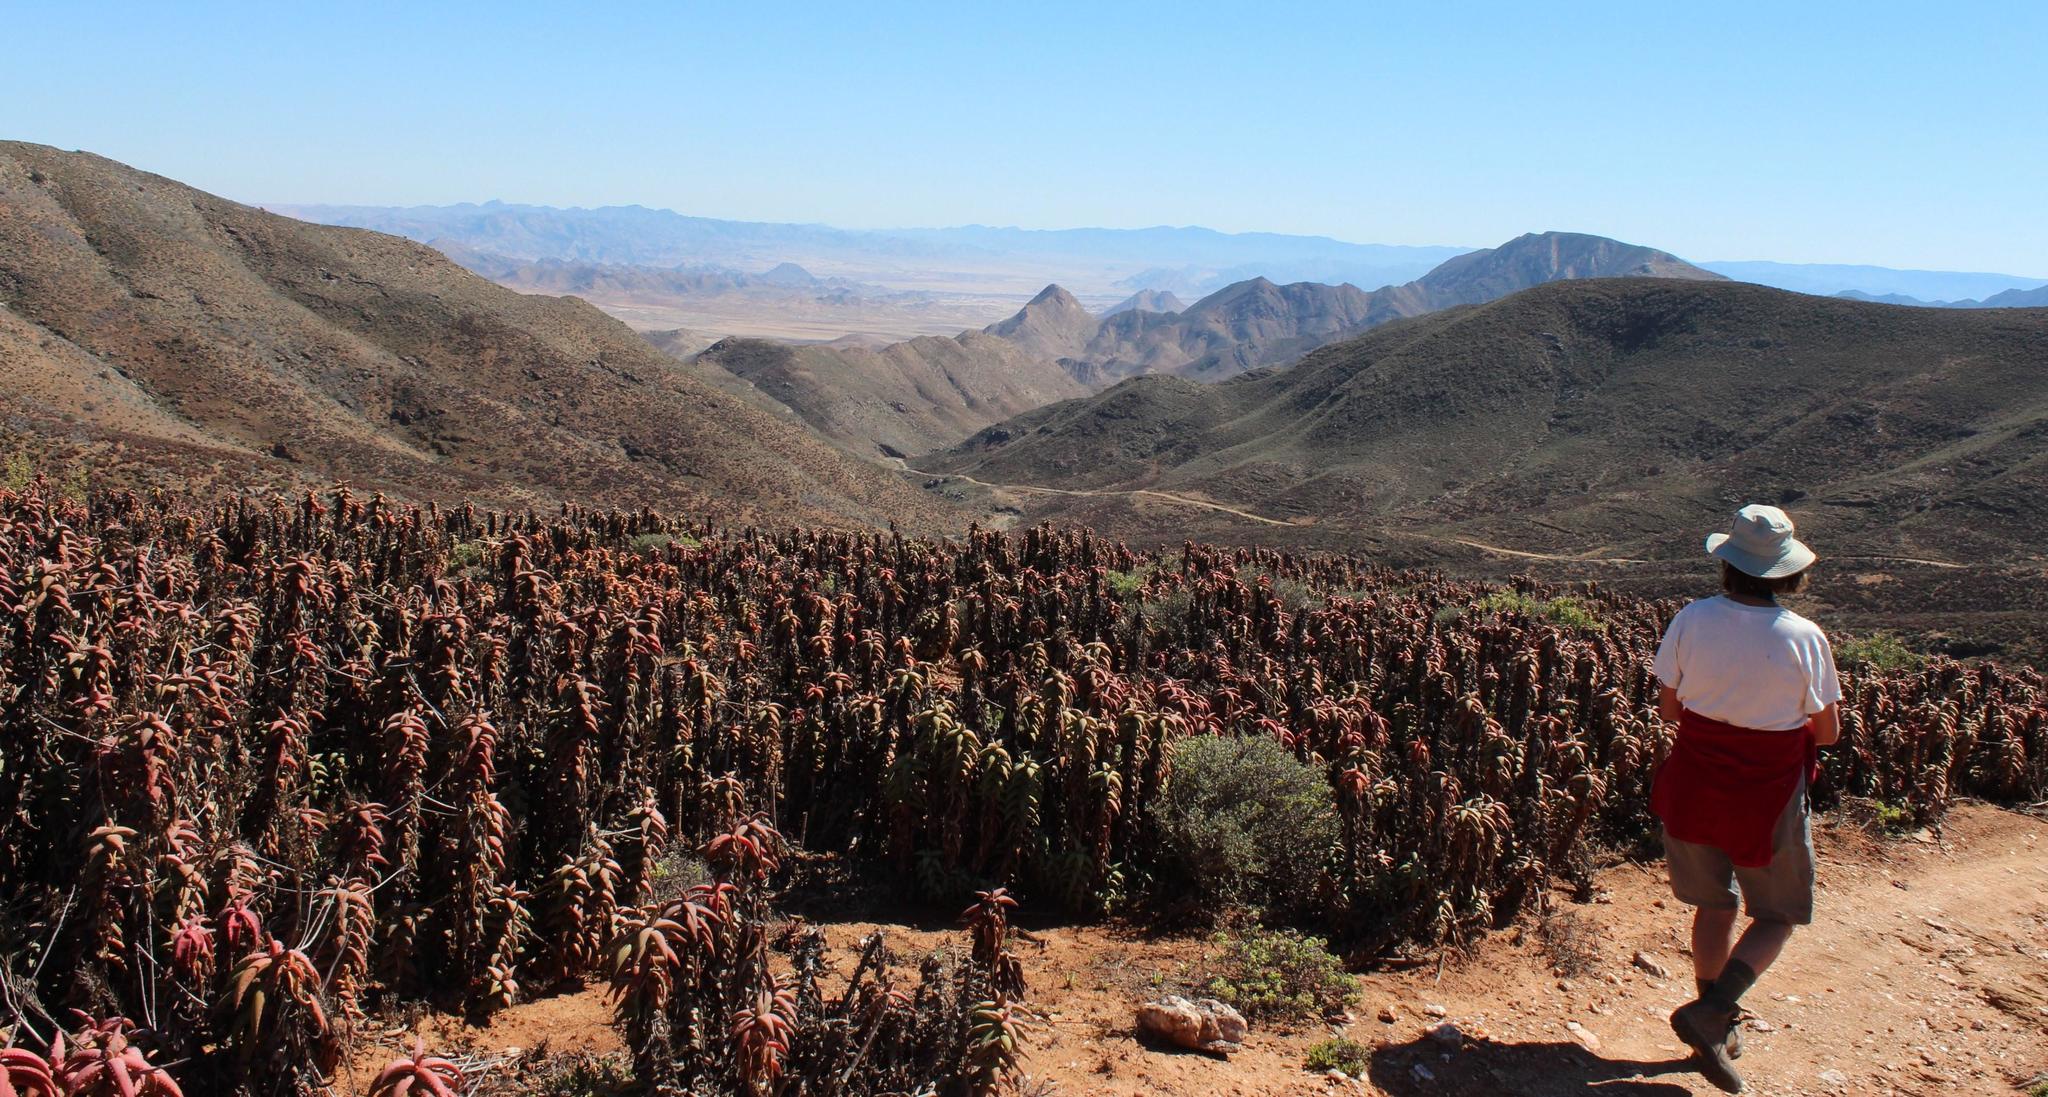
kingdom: Plantae
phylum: Tracheophyta
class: Liliopsida
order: Asparagales
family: Asphodelaceae
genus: Aloe
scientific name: Aloe pearsonii
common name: Pearson's aloe
